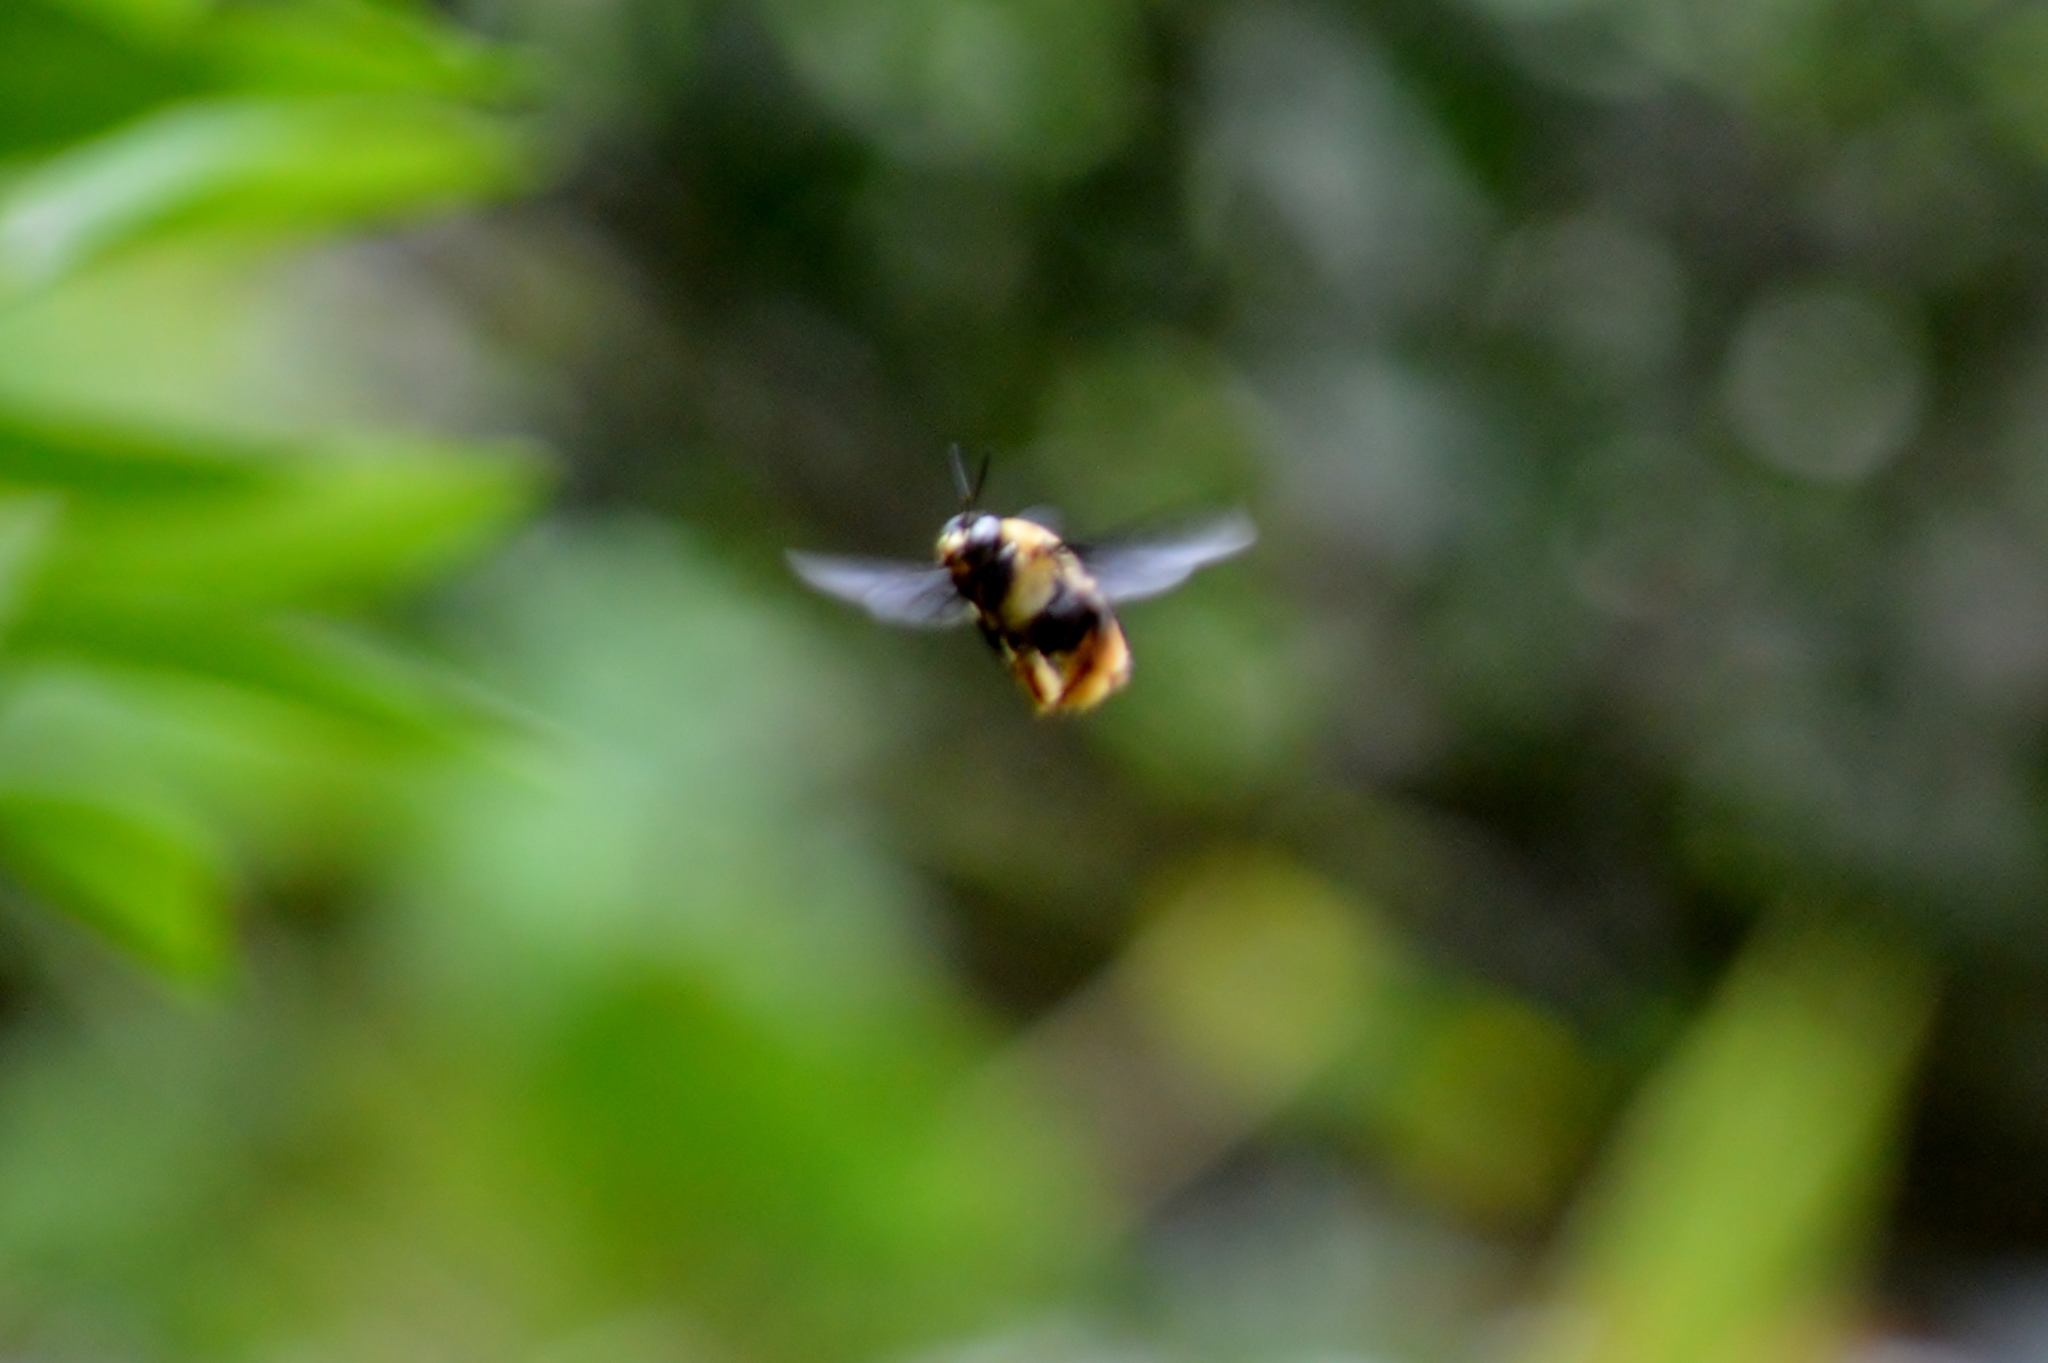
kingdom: Animalia
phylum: Arthropoda
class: Insecta
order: Hymenoptera
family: Apidae
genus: Centris
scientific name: Centris mocsaryi
